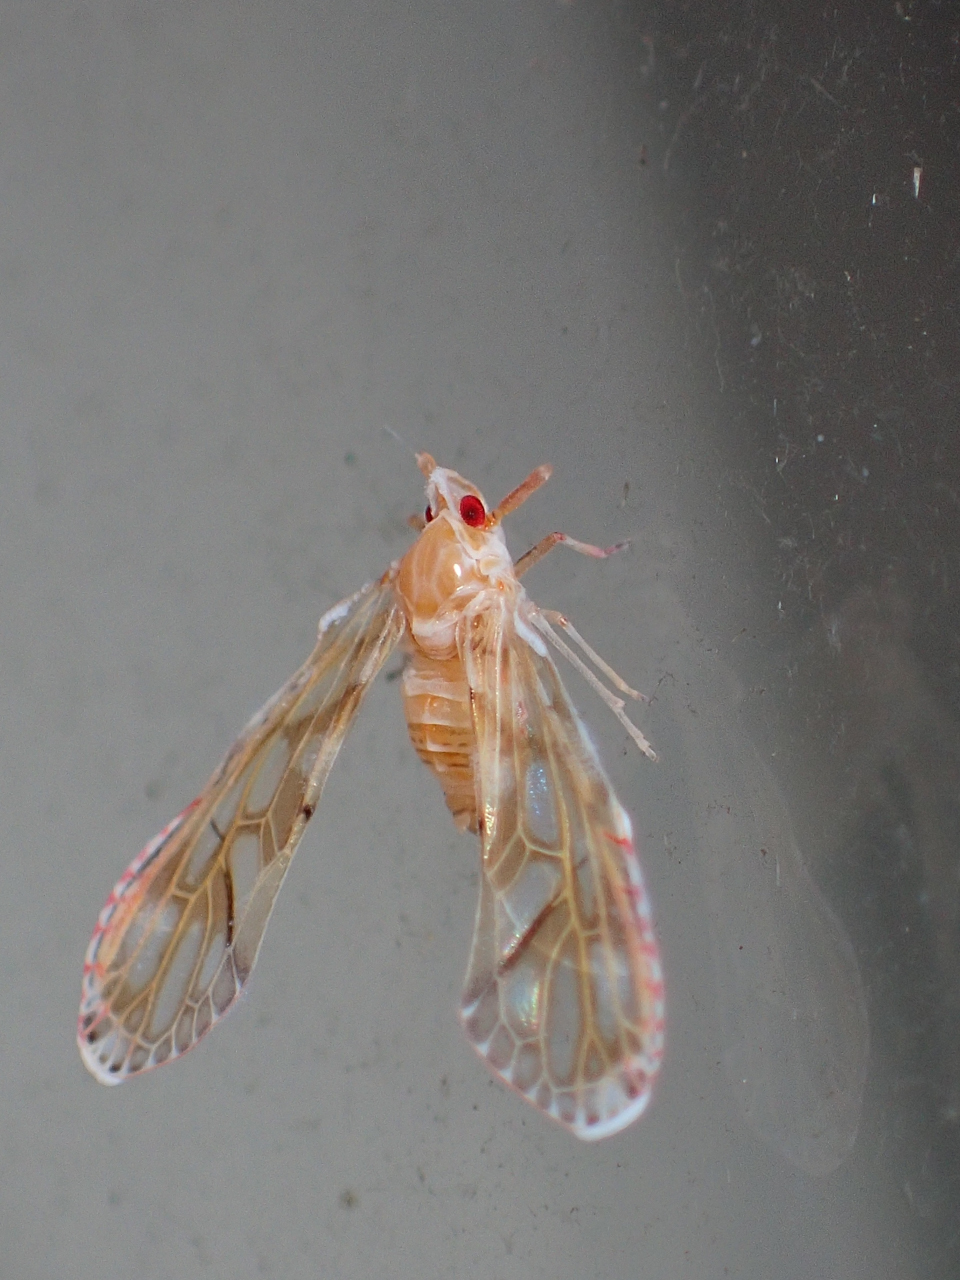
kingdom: Animalia
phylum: Arthropoda
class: Insecta
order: Hemiptera
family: Derbidae
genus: Anotia
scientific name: Anotia kirkaldyi
